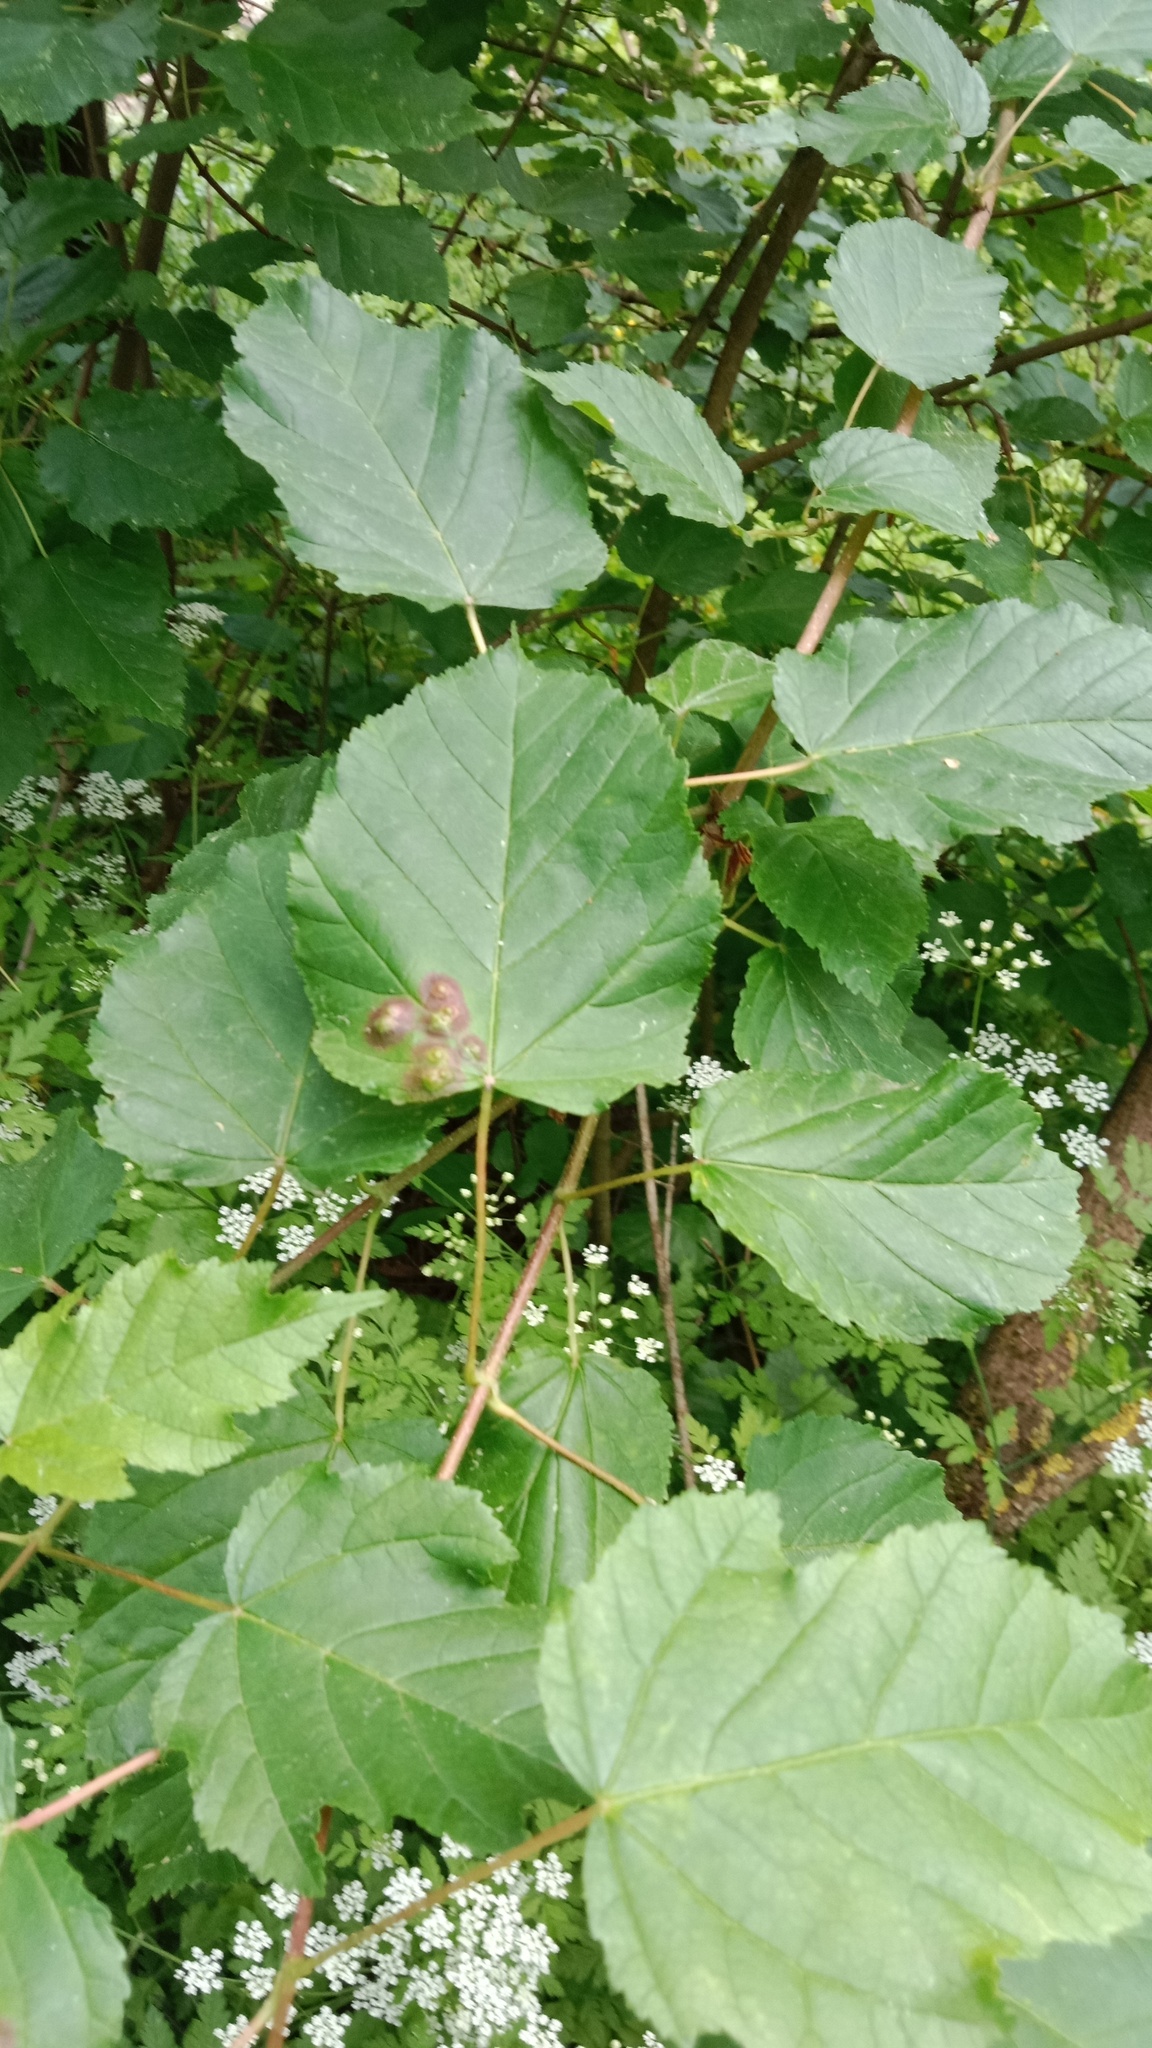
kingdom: Plantae
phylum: Tracheophyta
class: Magnoliopsida
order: Sapindales
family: Sapindaceae
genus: Acer
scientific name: Acer tataricum
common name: Tartar maple
